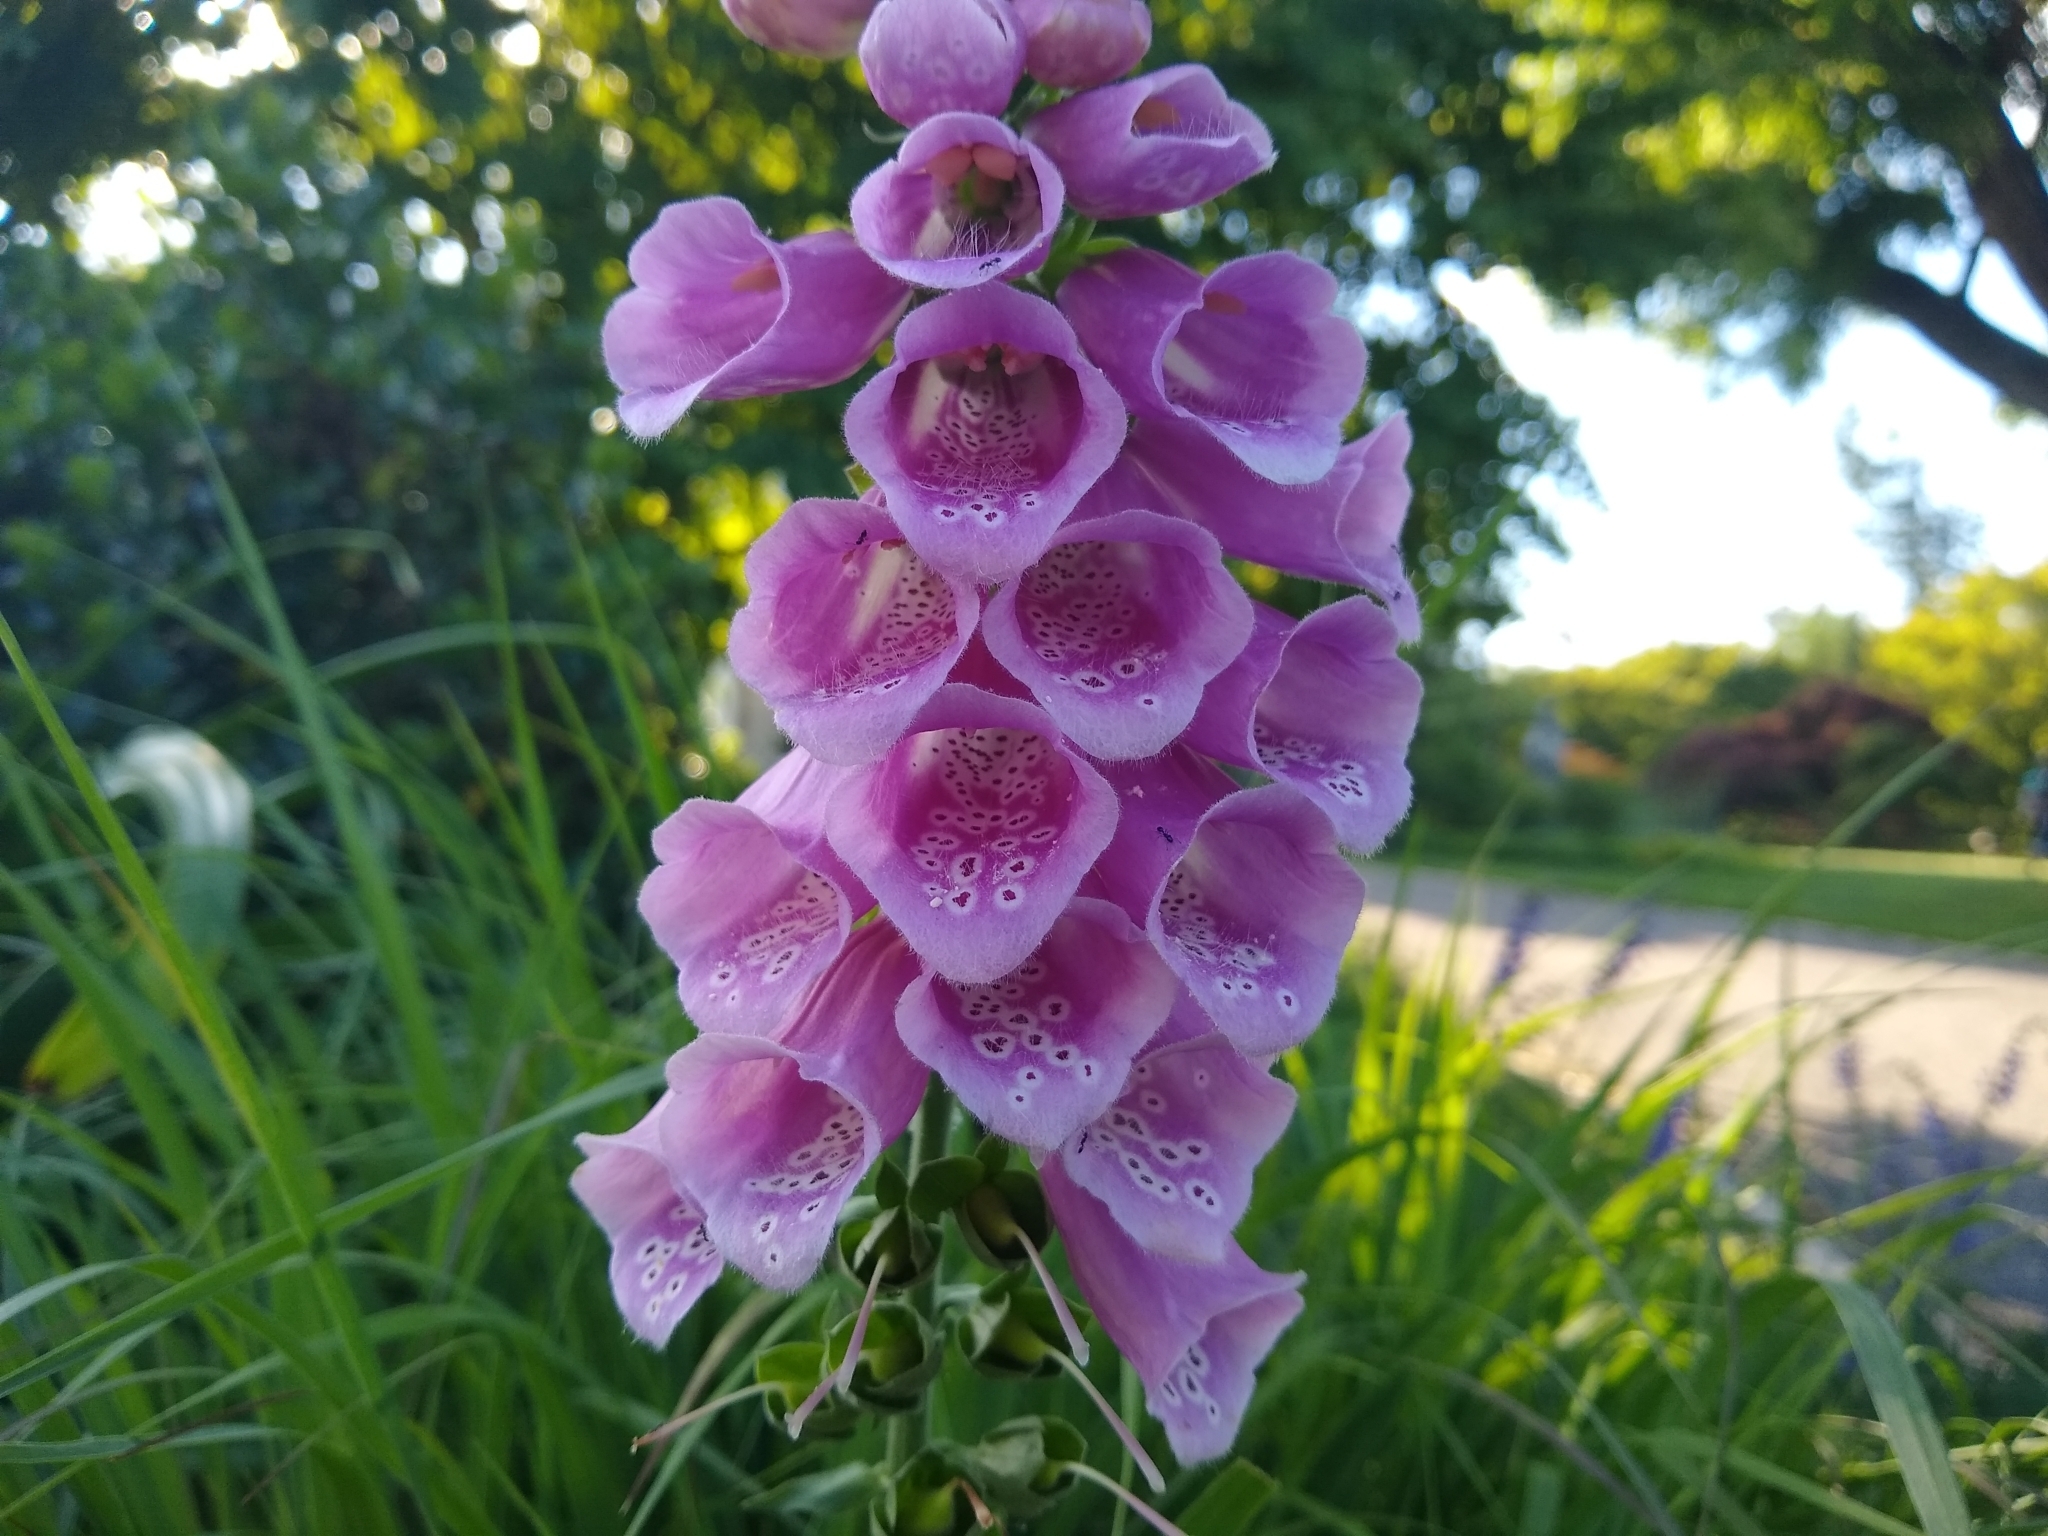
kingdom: Plantae
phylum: Tracheophyta
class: Magnoliopsida
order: Lamiales
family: Plantaginaceae
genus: Digitalis
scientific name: Digitalis purpurea
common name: Foxglove
